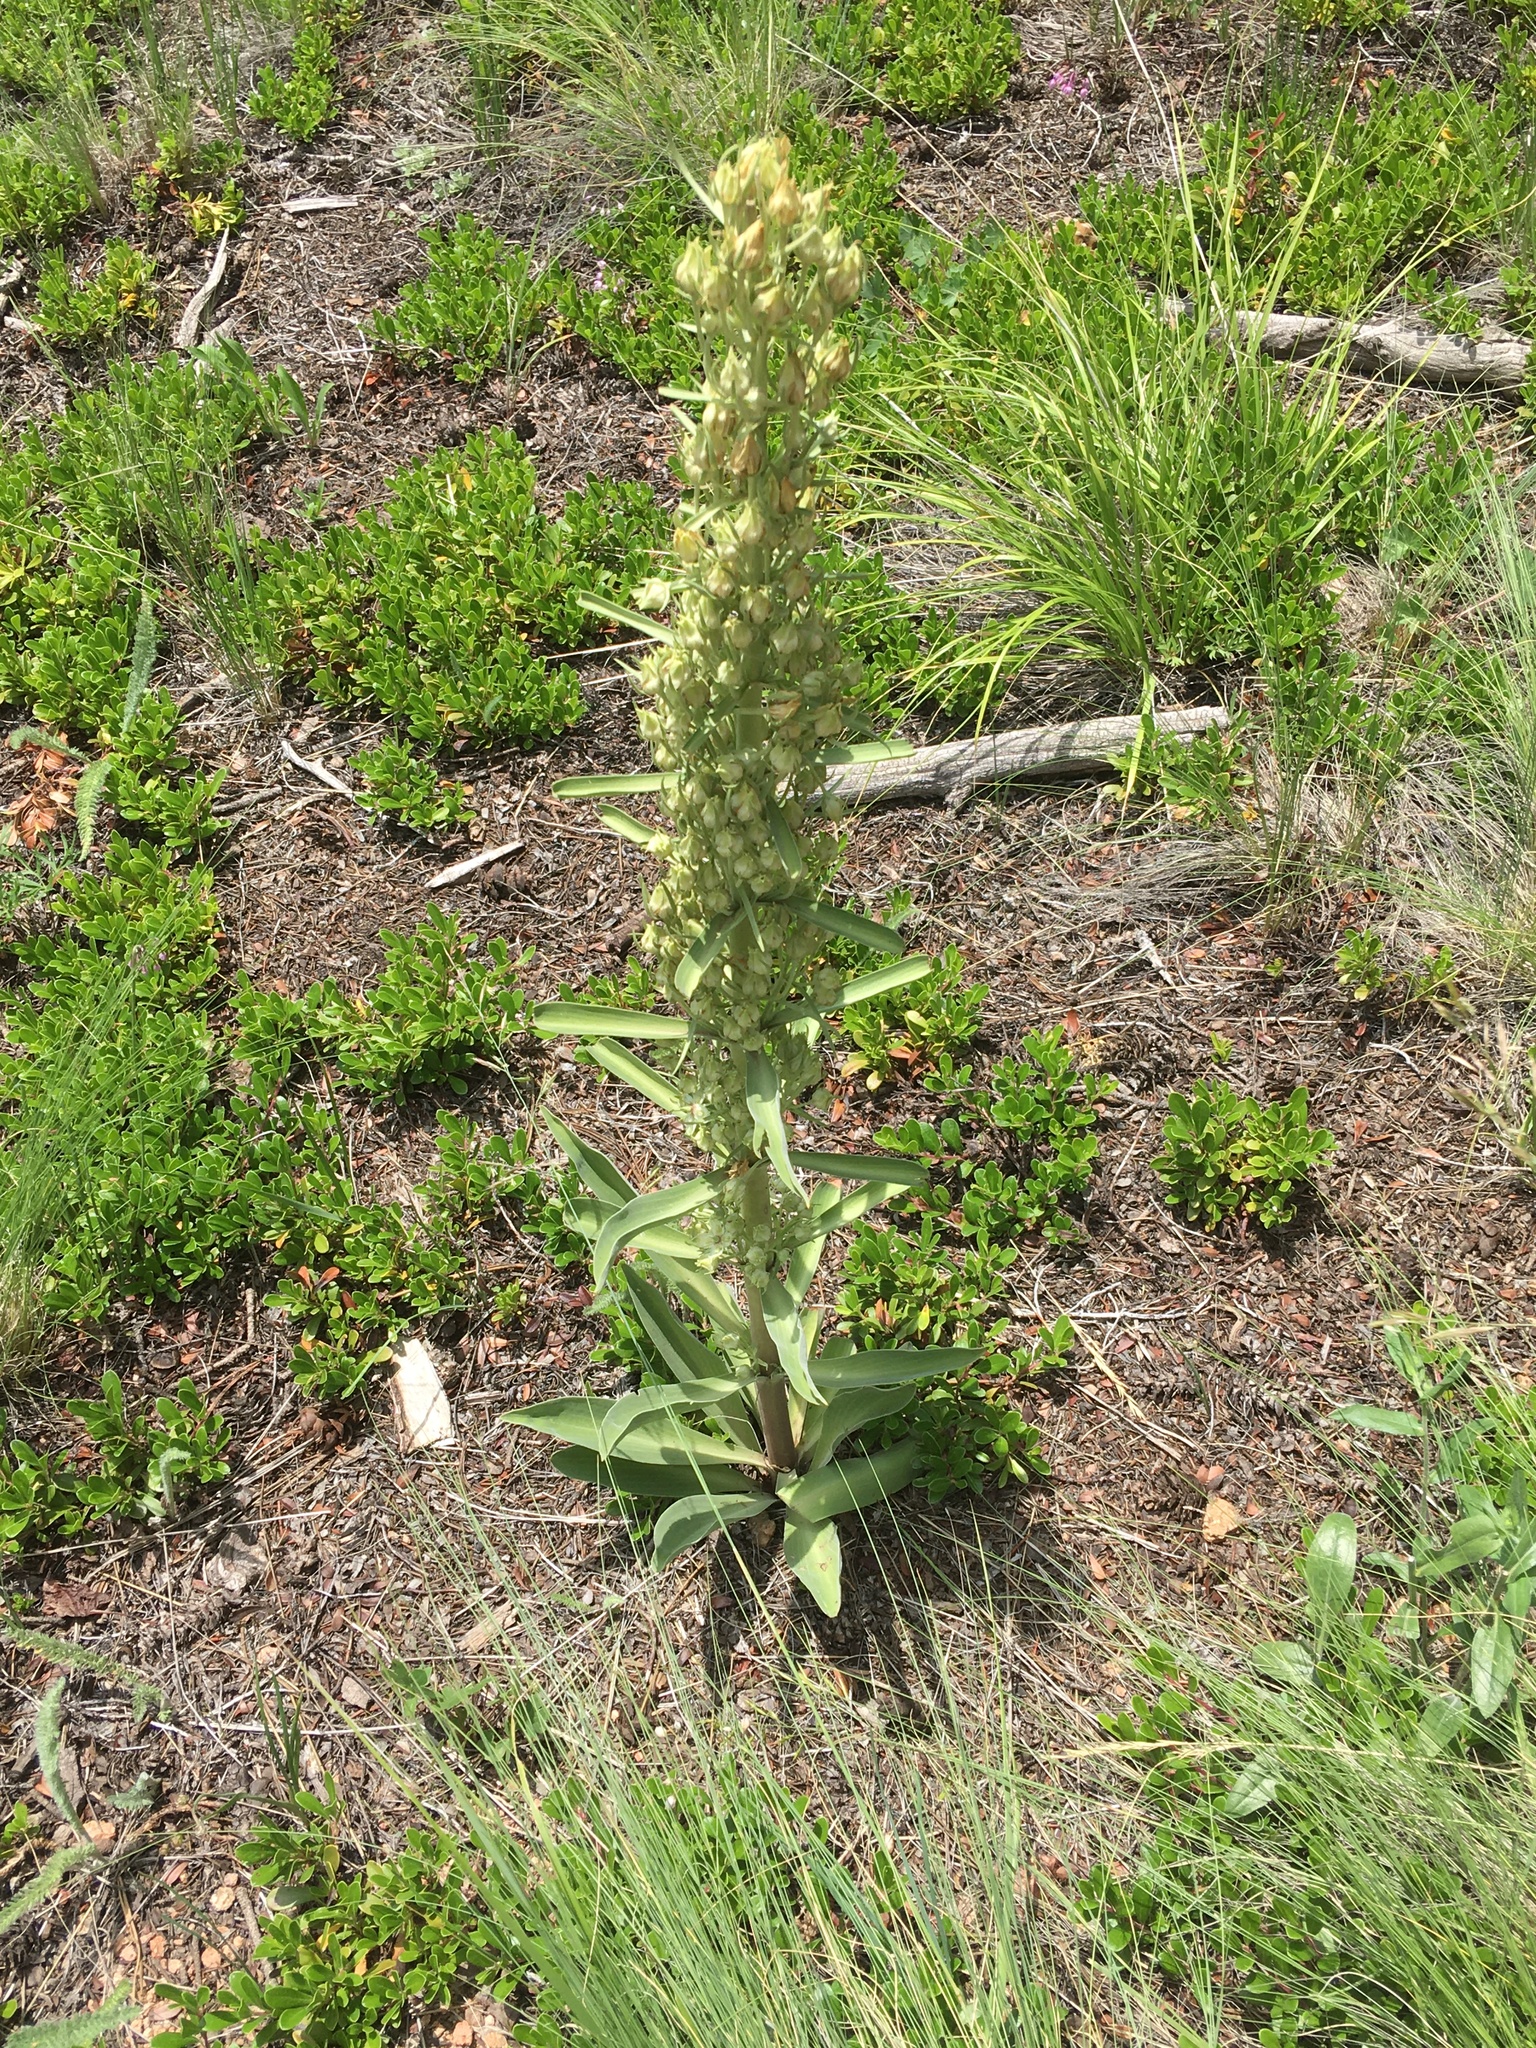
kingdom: Plantae
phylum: Tracheophyta
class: Magnoliopsida
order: Gentianales
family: Gentianaceae
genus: Frasera
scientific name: Frasera speciosa
